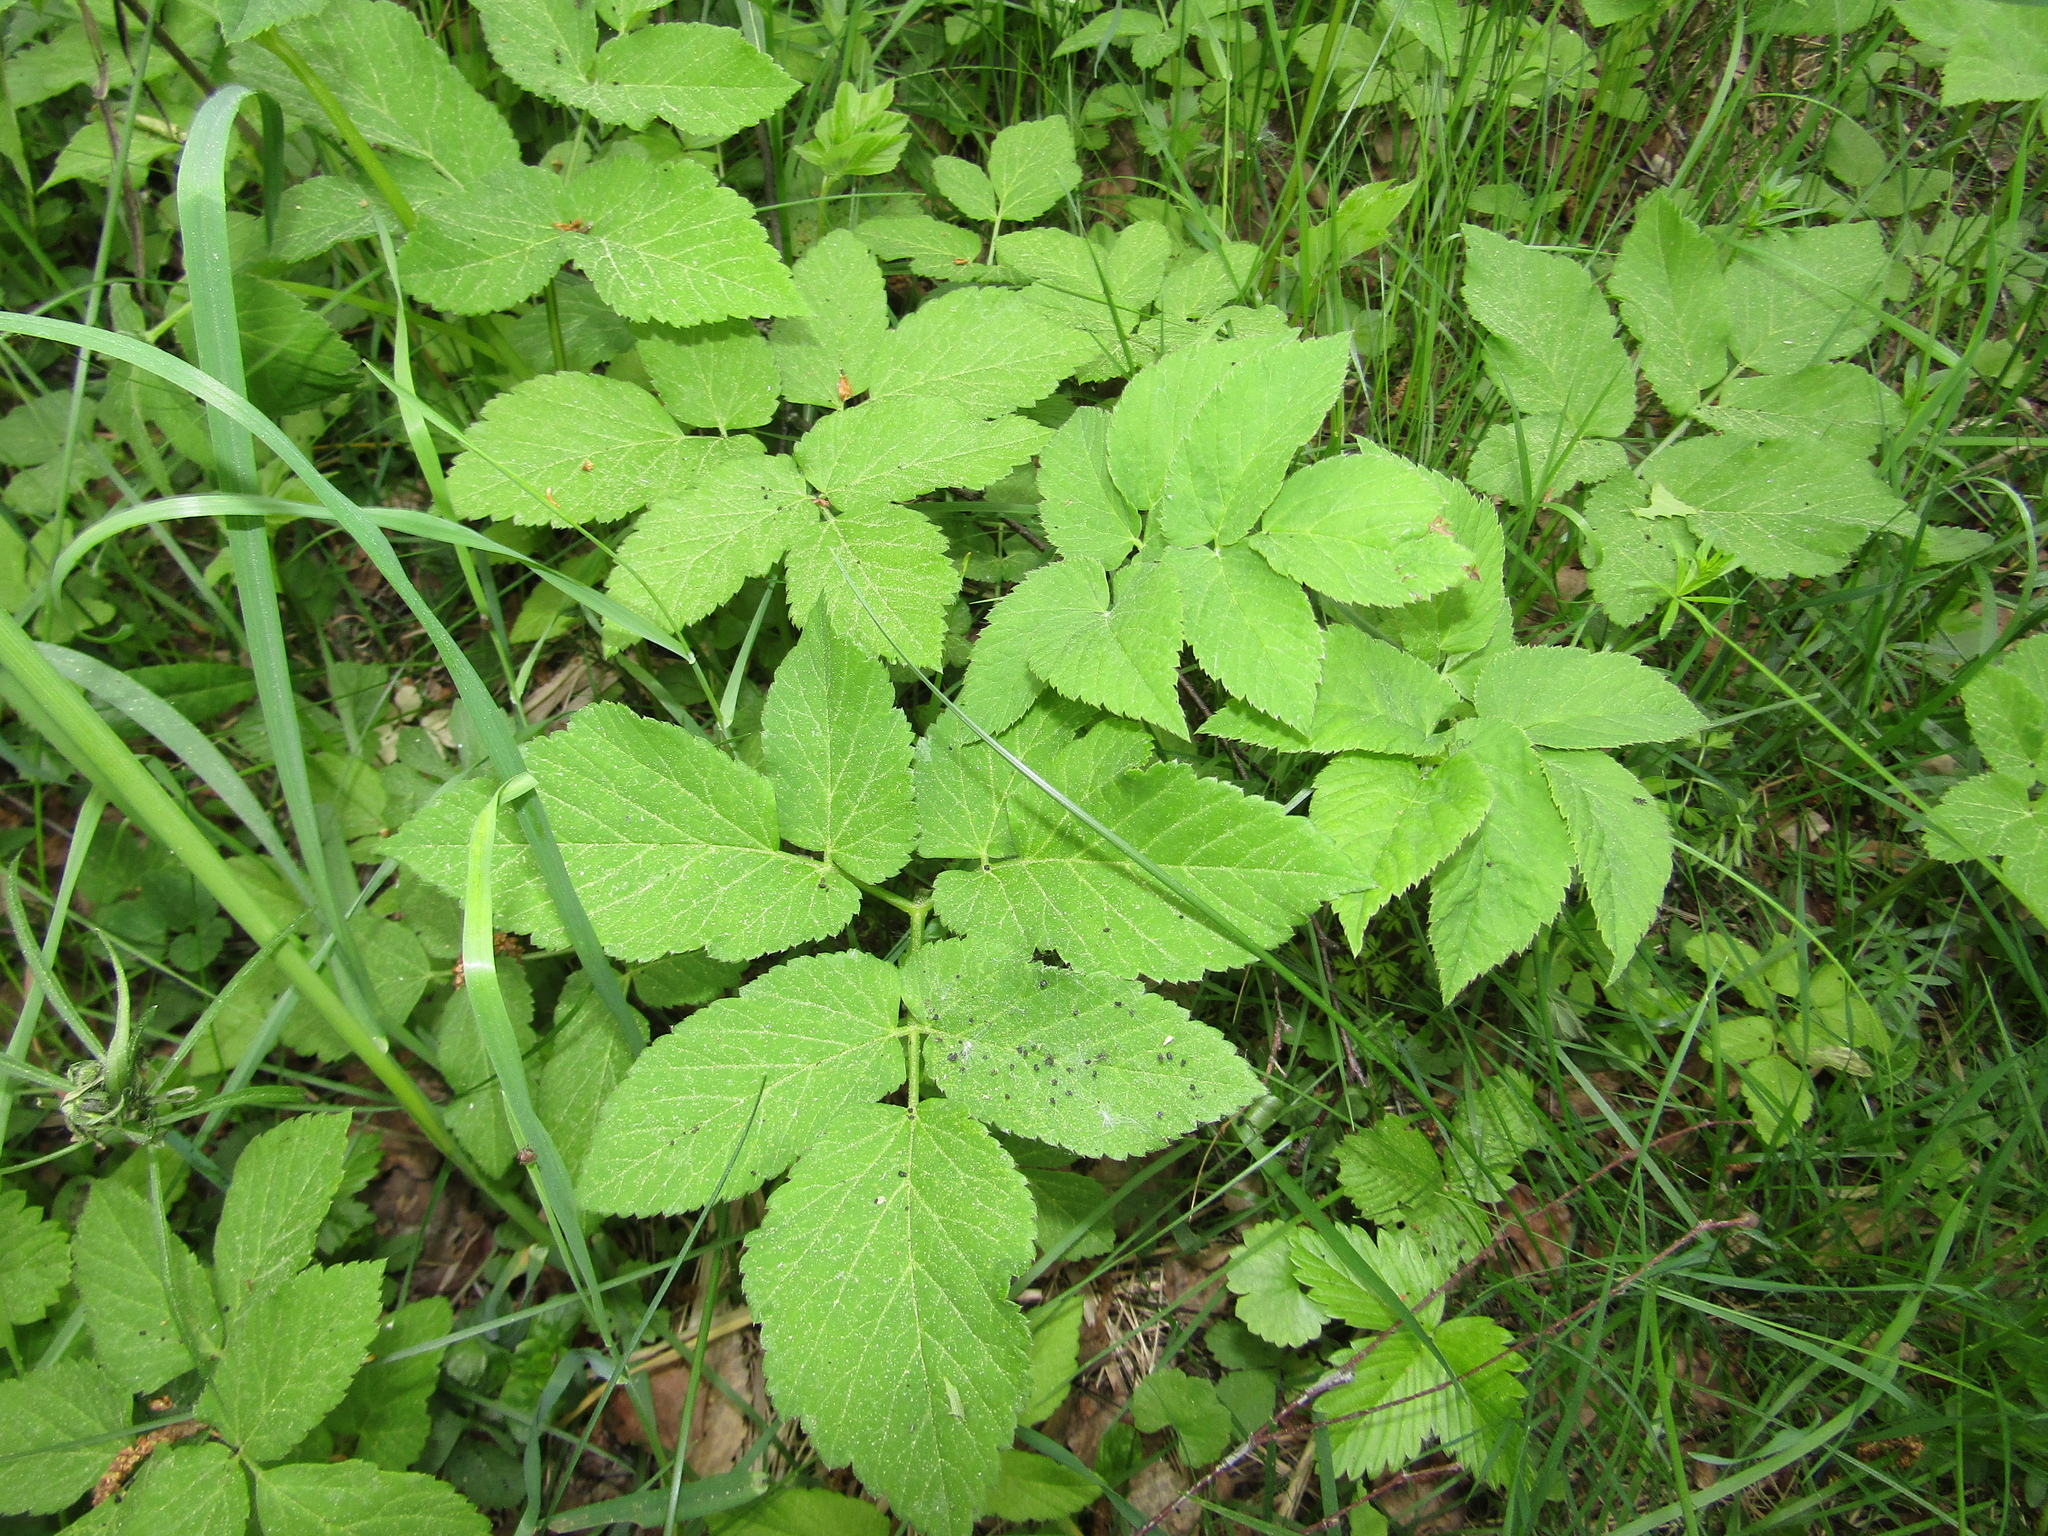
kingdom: Plantae
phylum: Tracheophyta
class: Magnoliopsida
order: Apiales
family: Apiaceae
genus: Aegopodium
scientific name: Aegopodium podagraria
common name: Ground-elder
